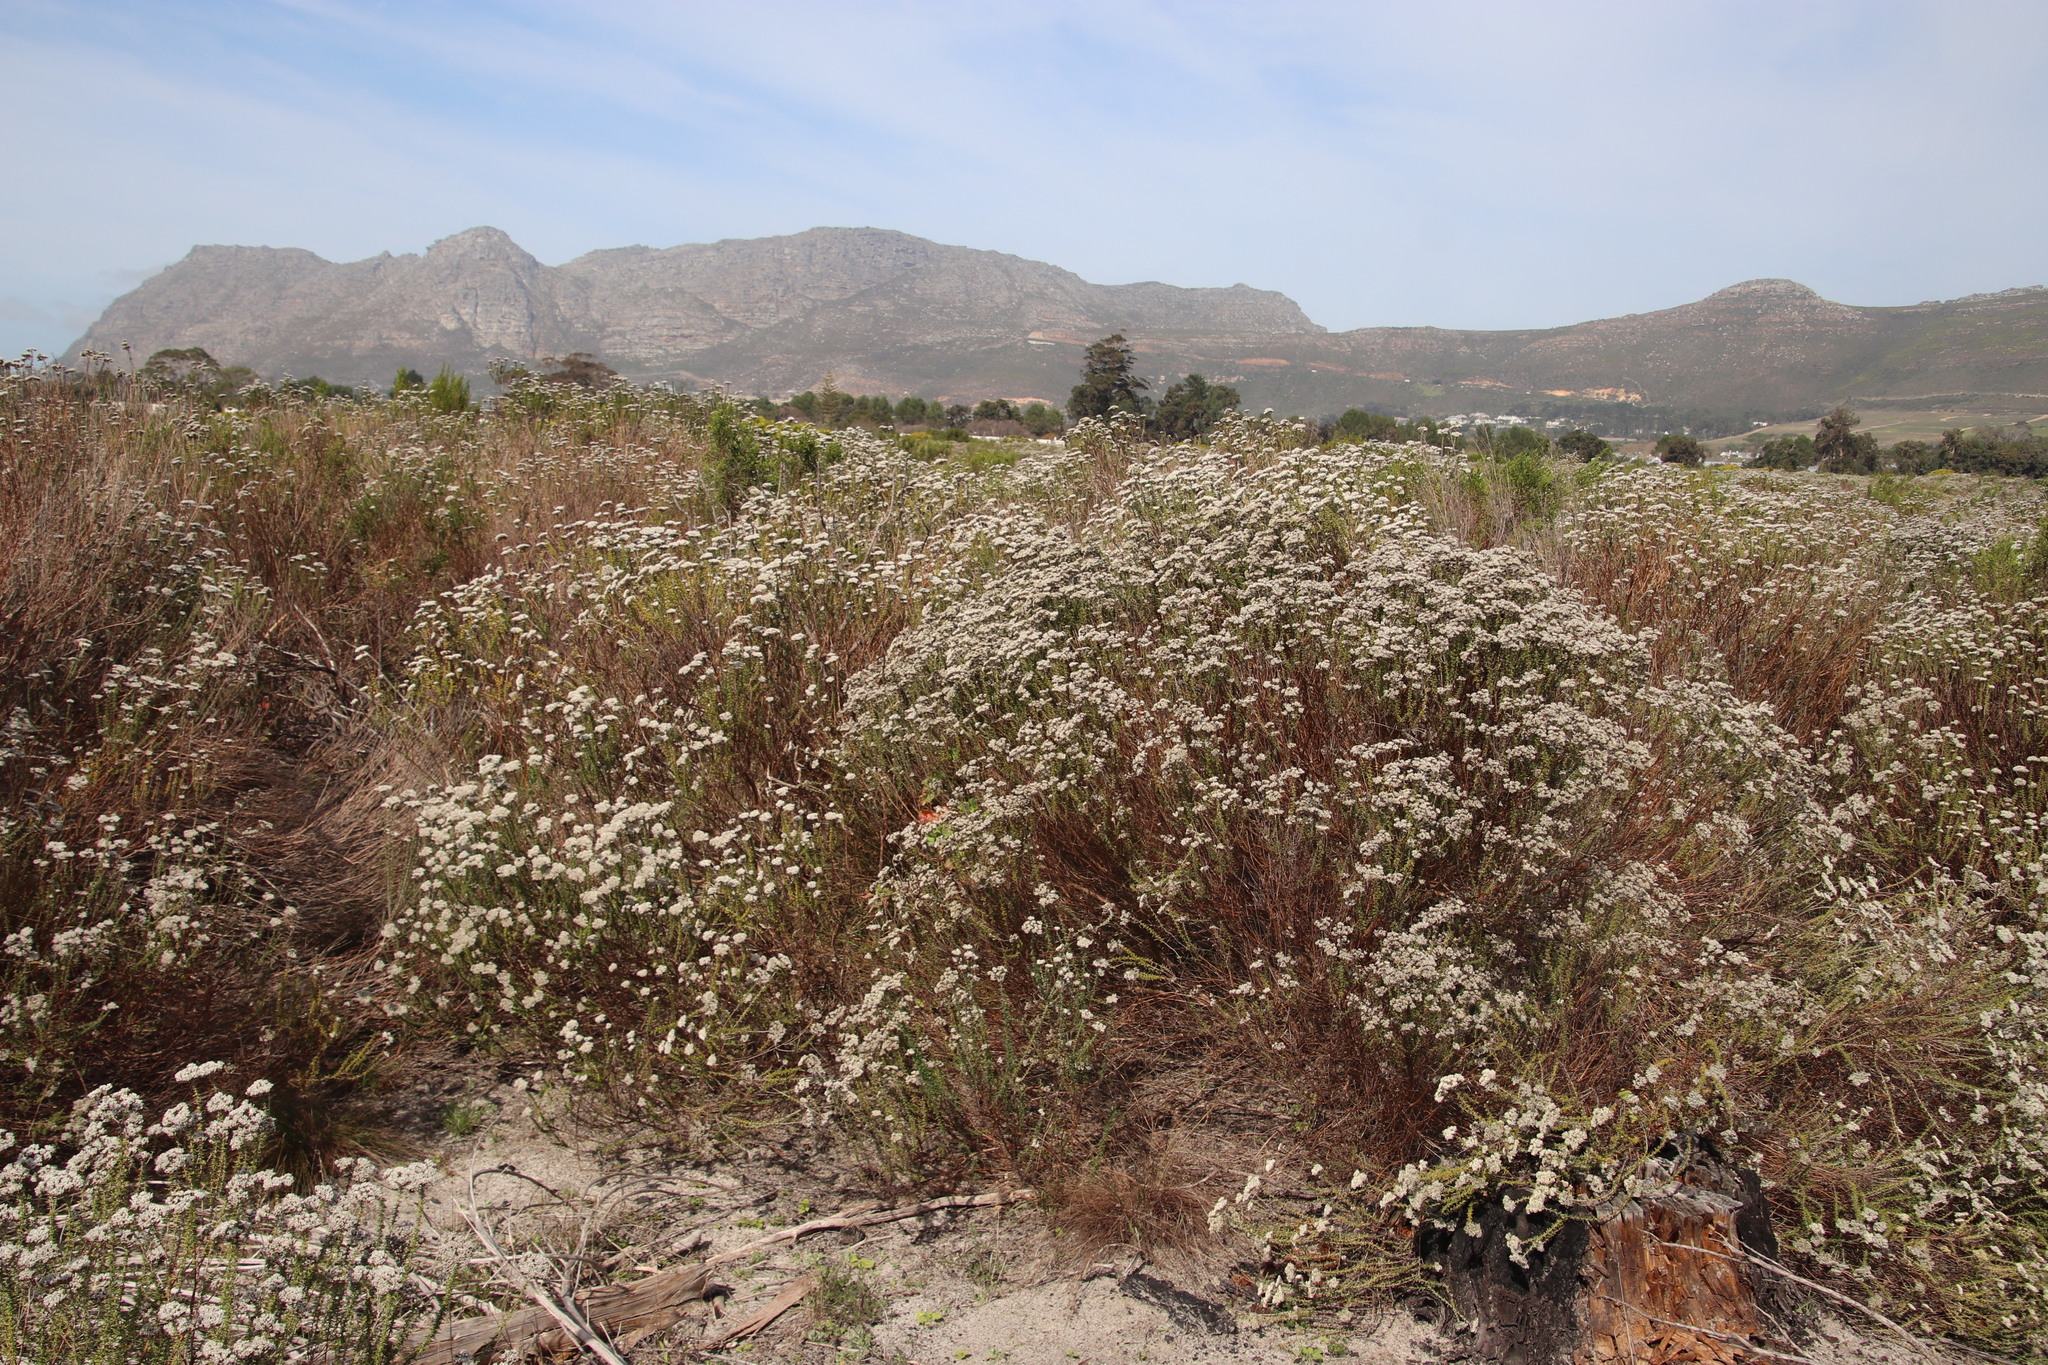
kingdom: Plantae
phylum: Tracheophyta
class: Magnoliopsida
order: Asterales
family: Asteraceae
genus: Metalasia
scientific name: Metalasia densa
